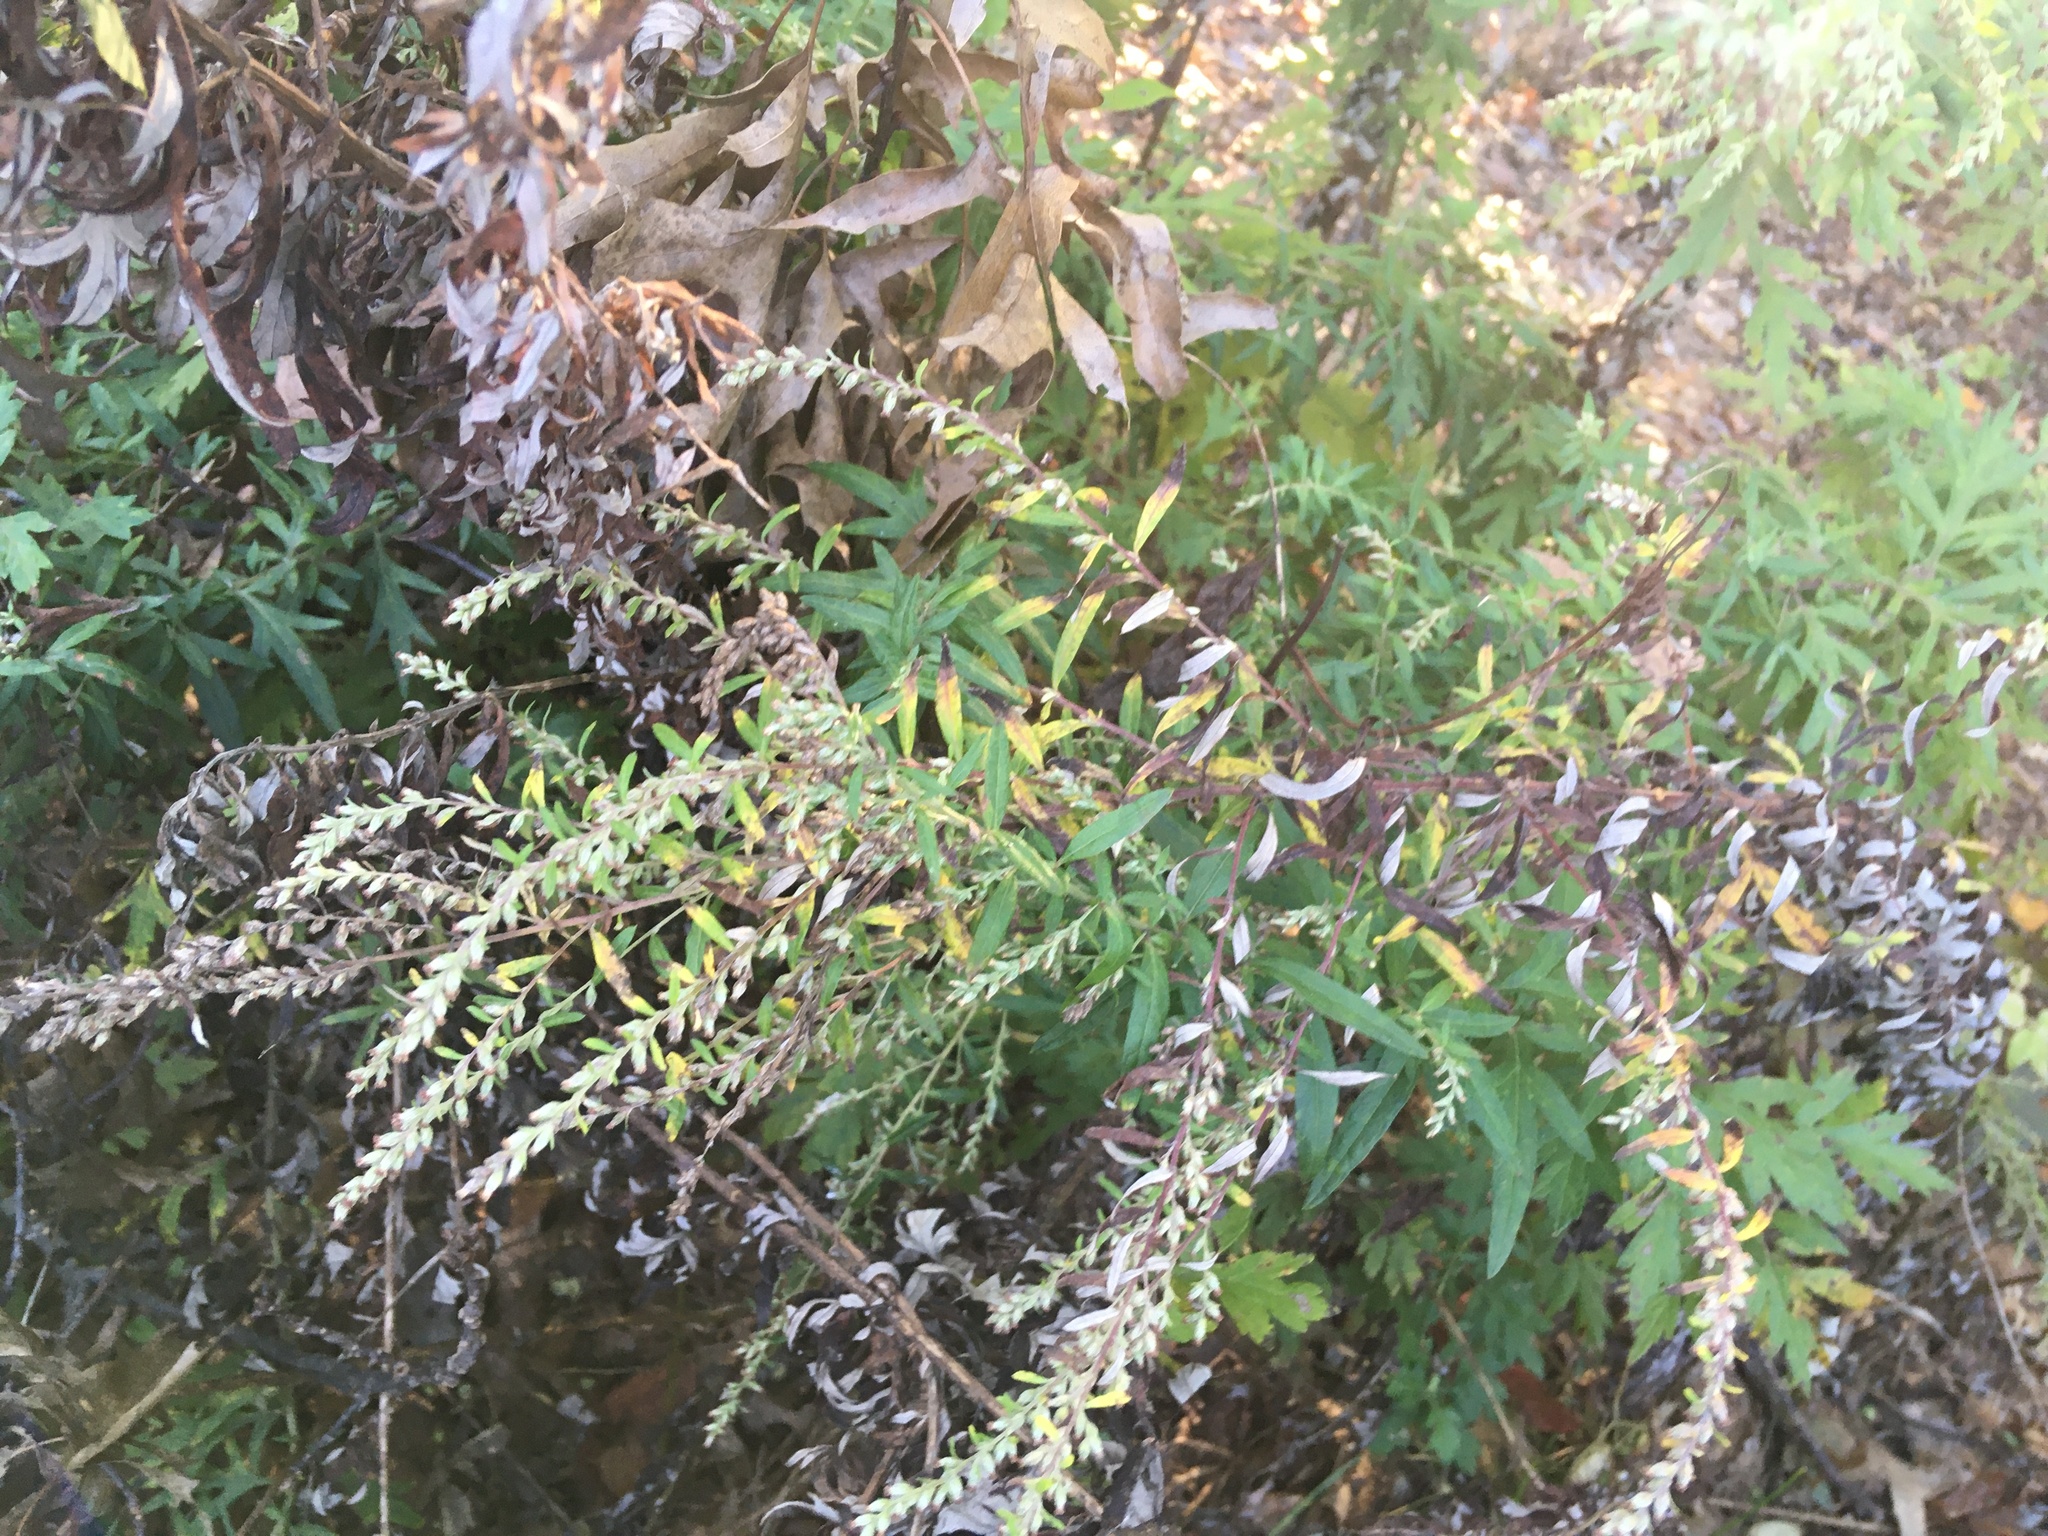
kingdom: Plantae
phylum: Tracheophyta
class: Magnoliopsida
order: Asterales
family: Asteraceae
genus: Artemisia
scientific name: Artemisia vulgaris
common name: Mugwort
